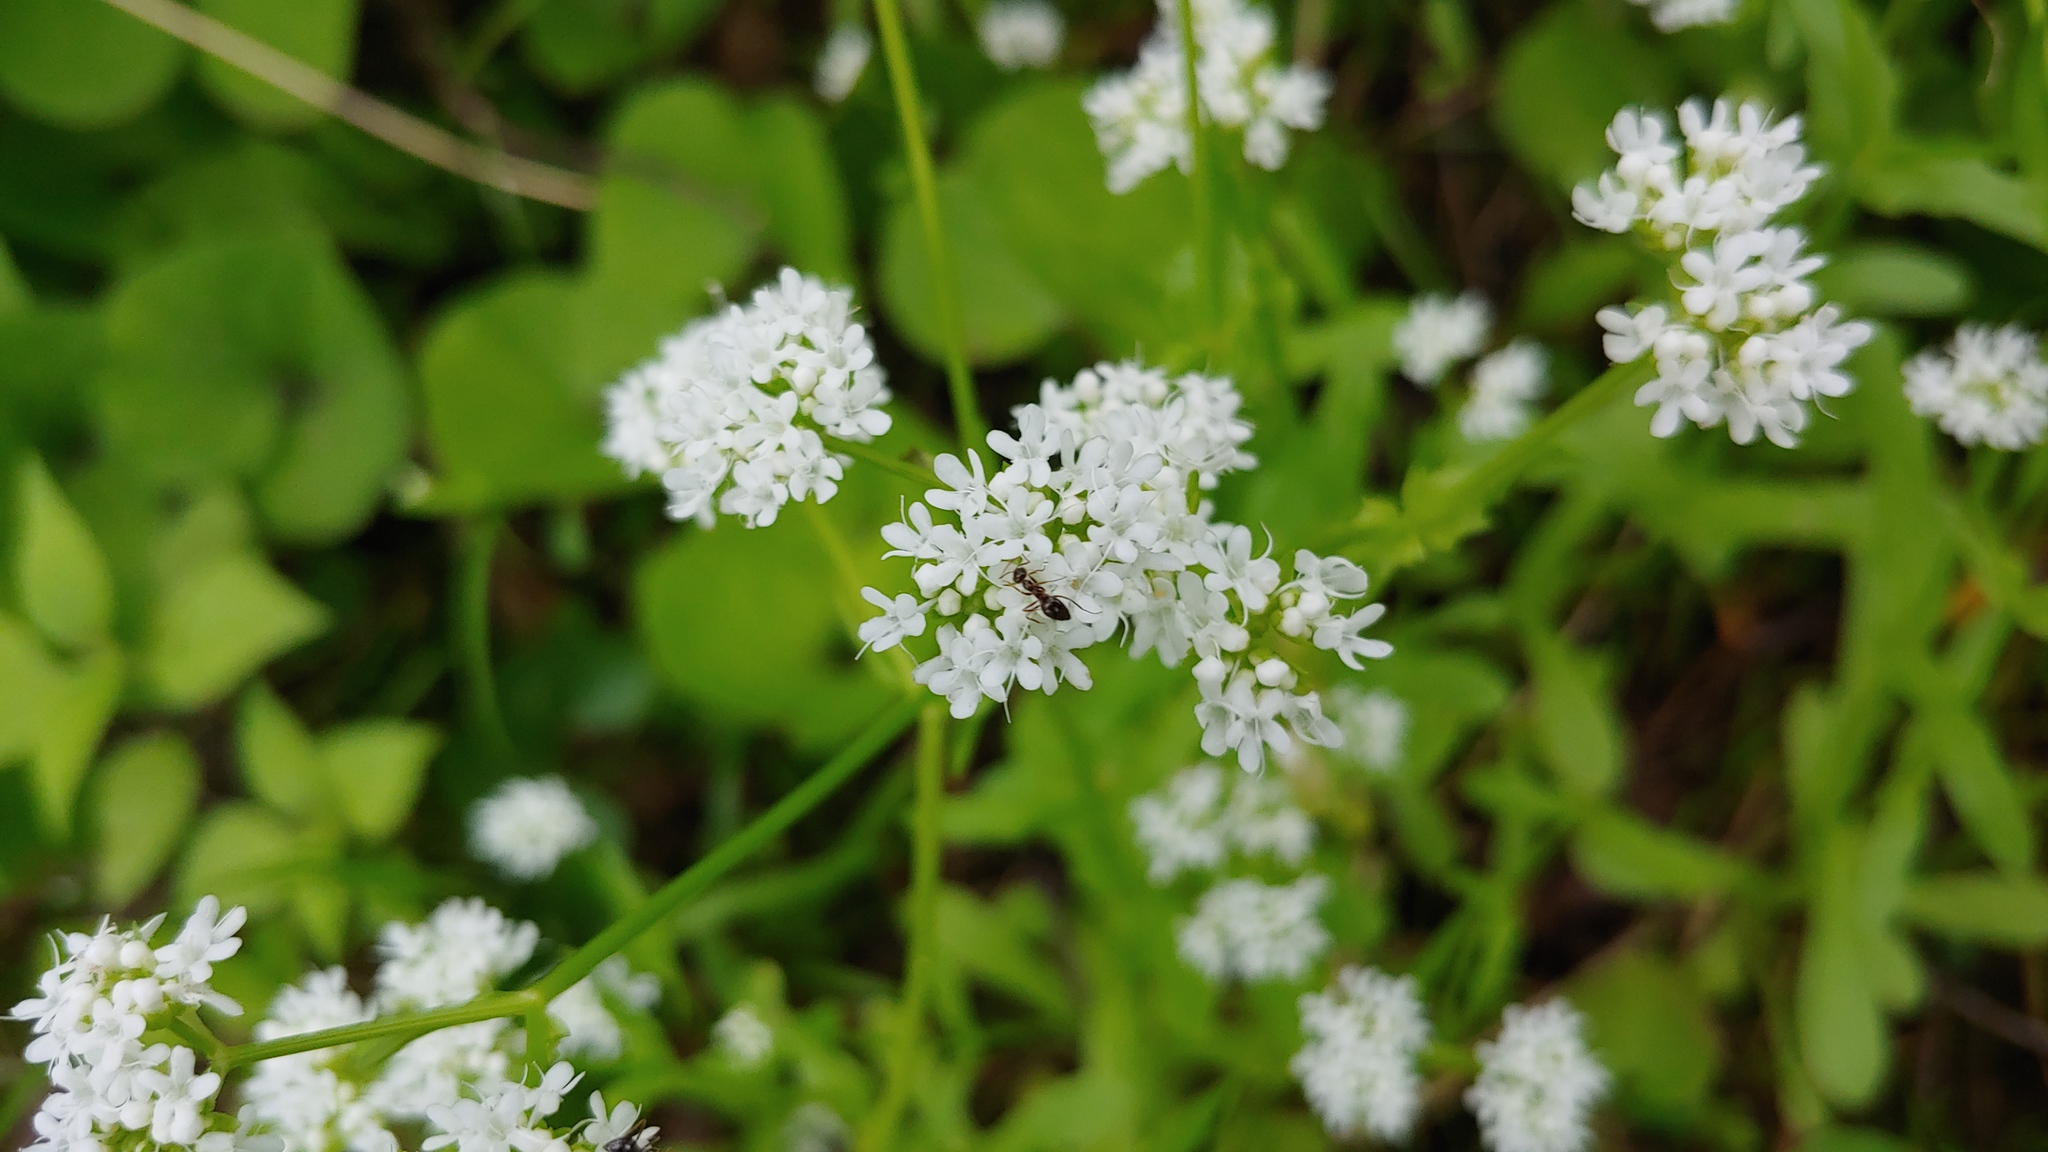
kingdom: Animalia
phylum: Arthropoda
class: Insecta
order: Hymenoptera
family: Formicidae
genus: Prenolepis
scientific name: Prenolepis imparis
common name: Small honey ant
